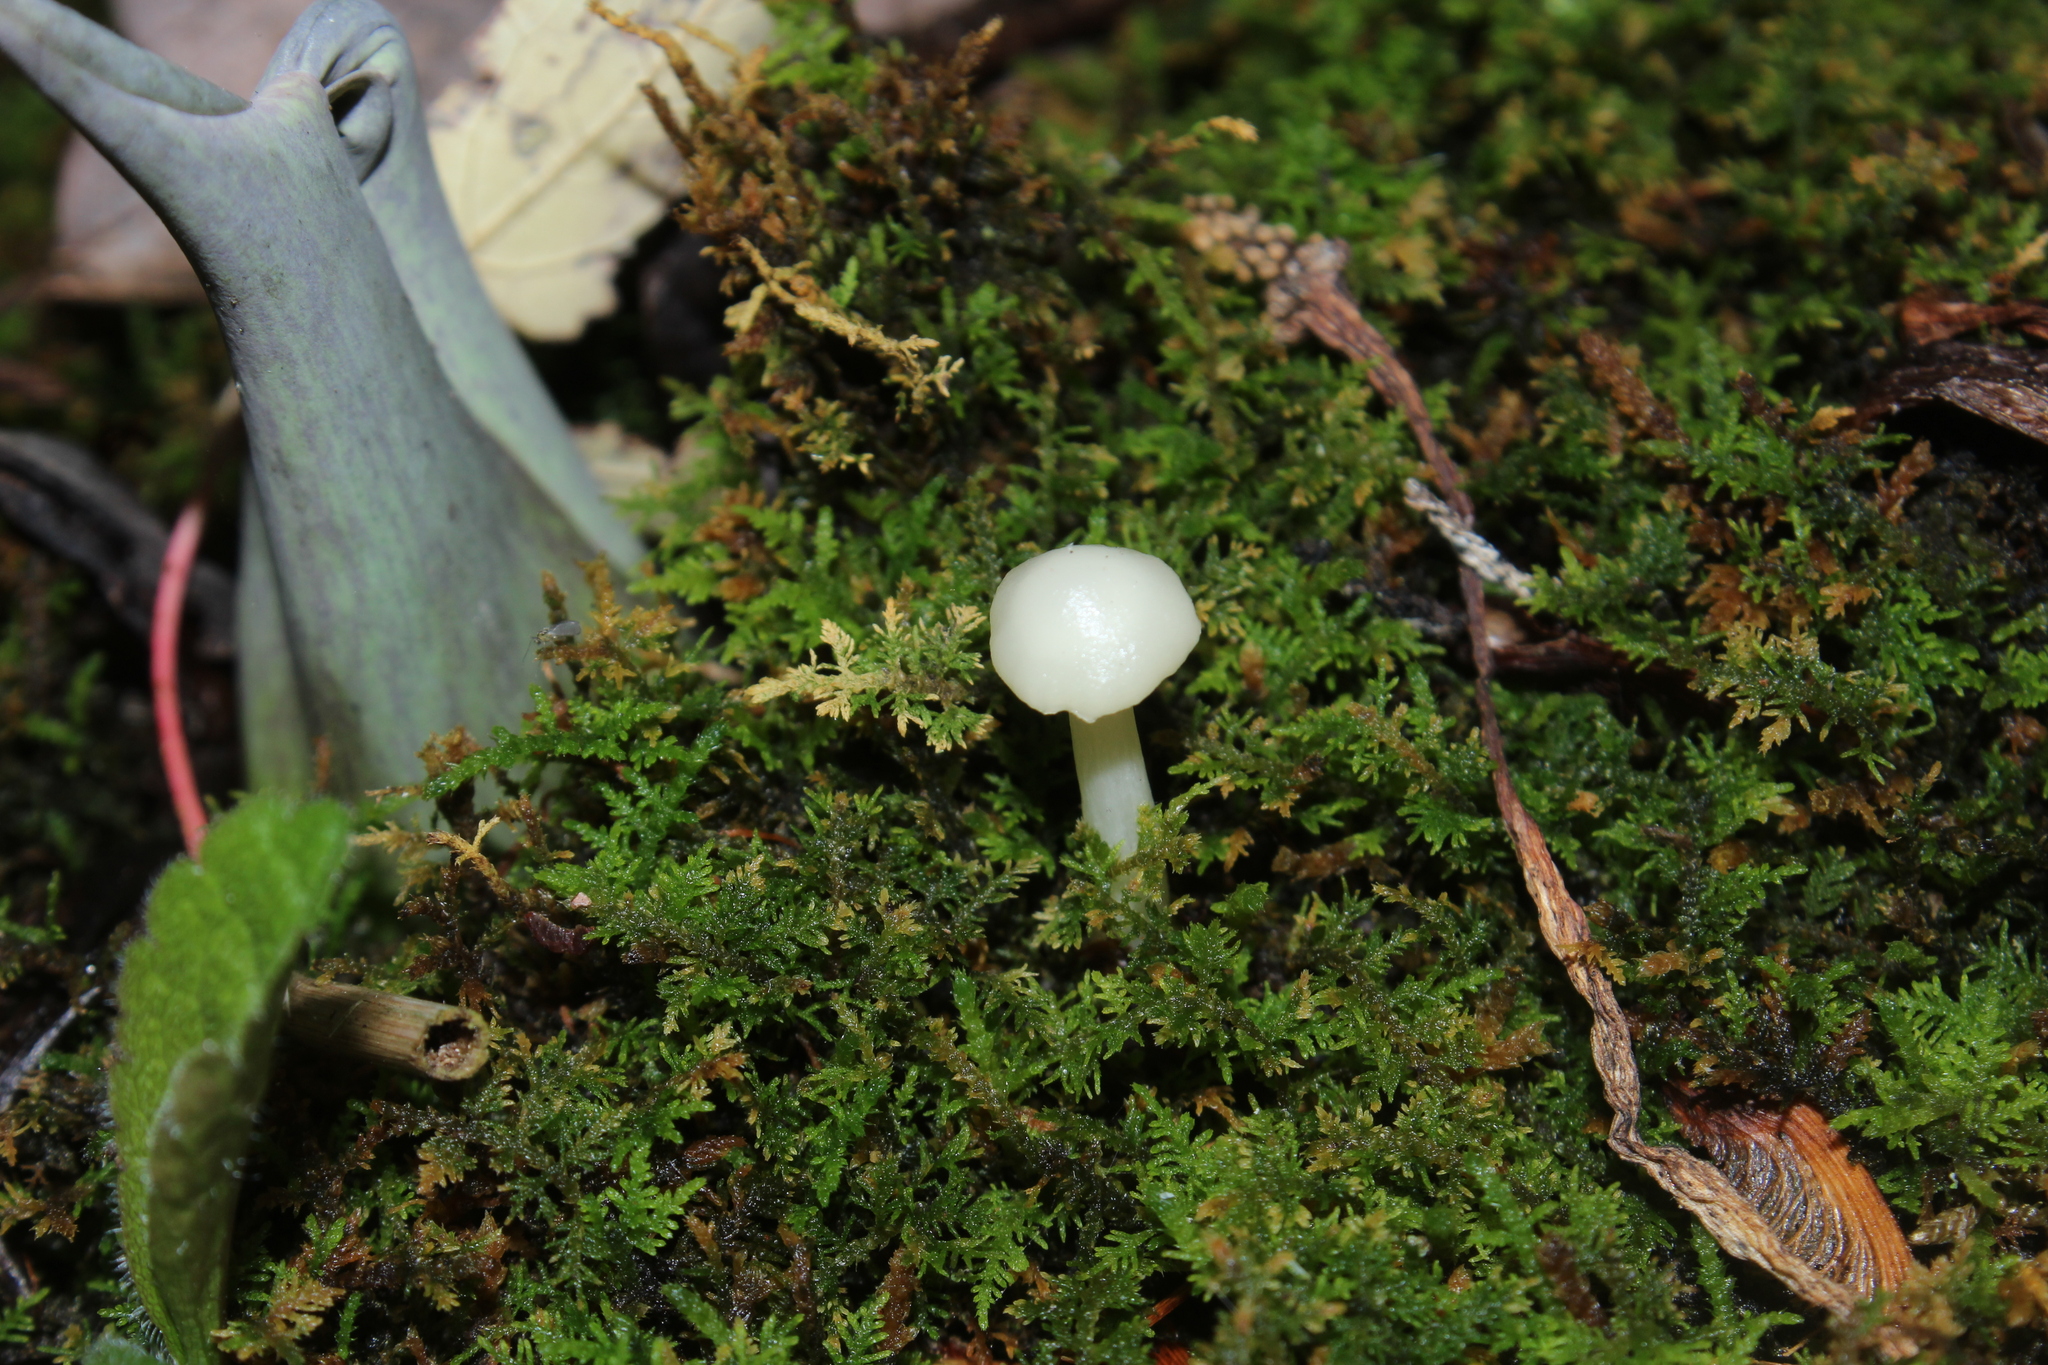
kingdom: Plantae
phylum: Tracheophyta
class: Liliopsida
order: Alismatales
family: Araceae
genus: Symplocarpus
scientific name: Symplocarpus foetidus
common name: Eastern skunk cabbage
